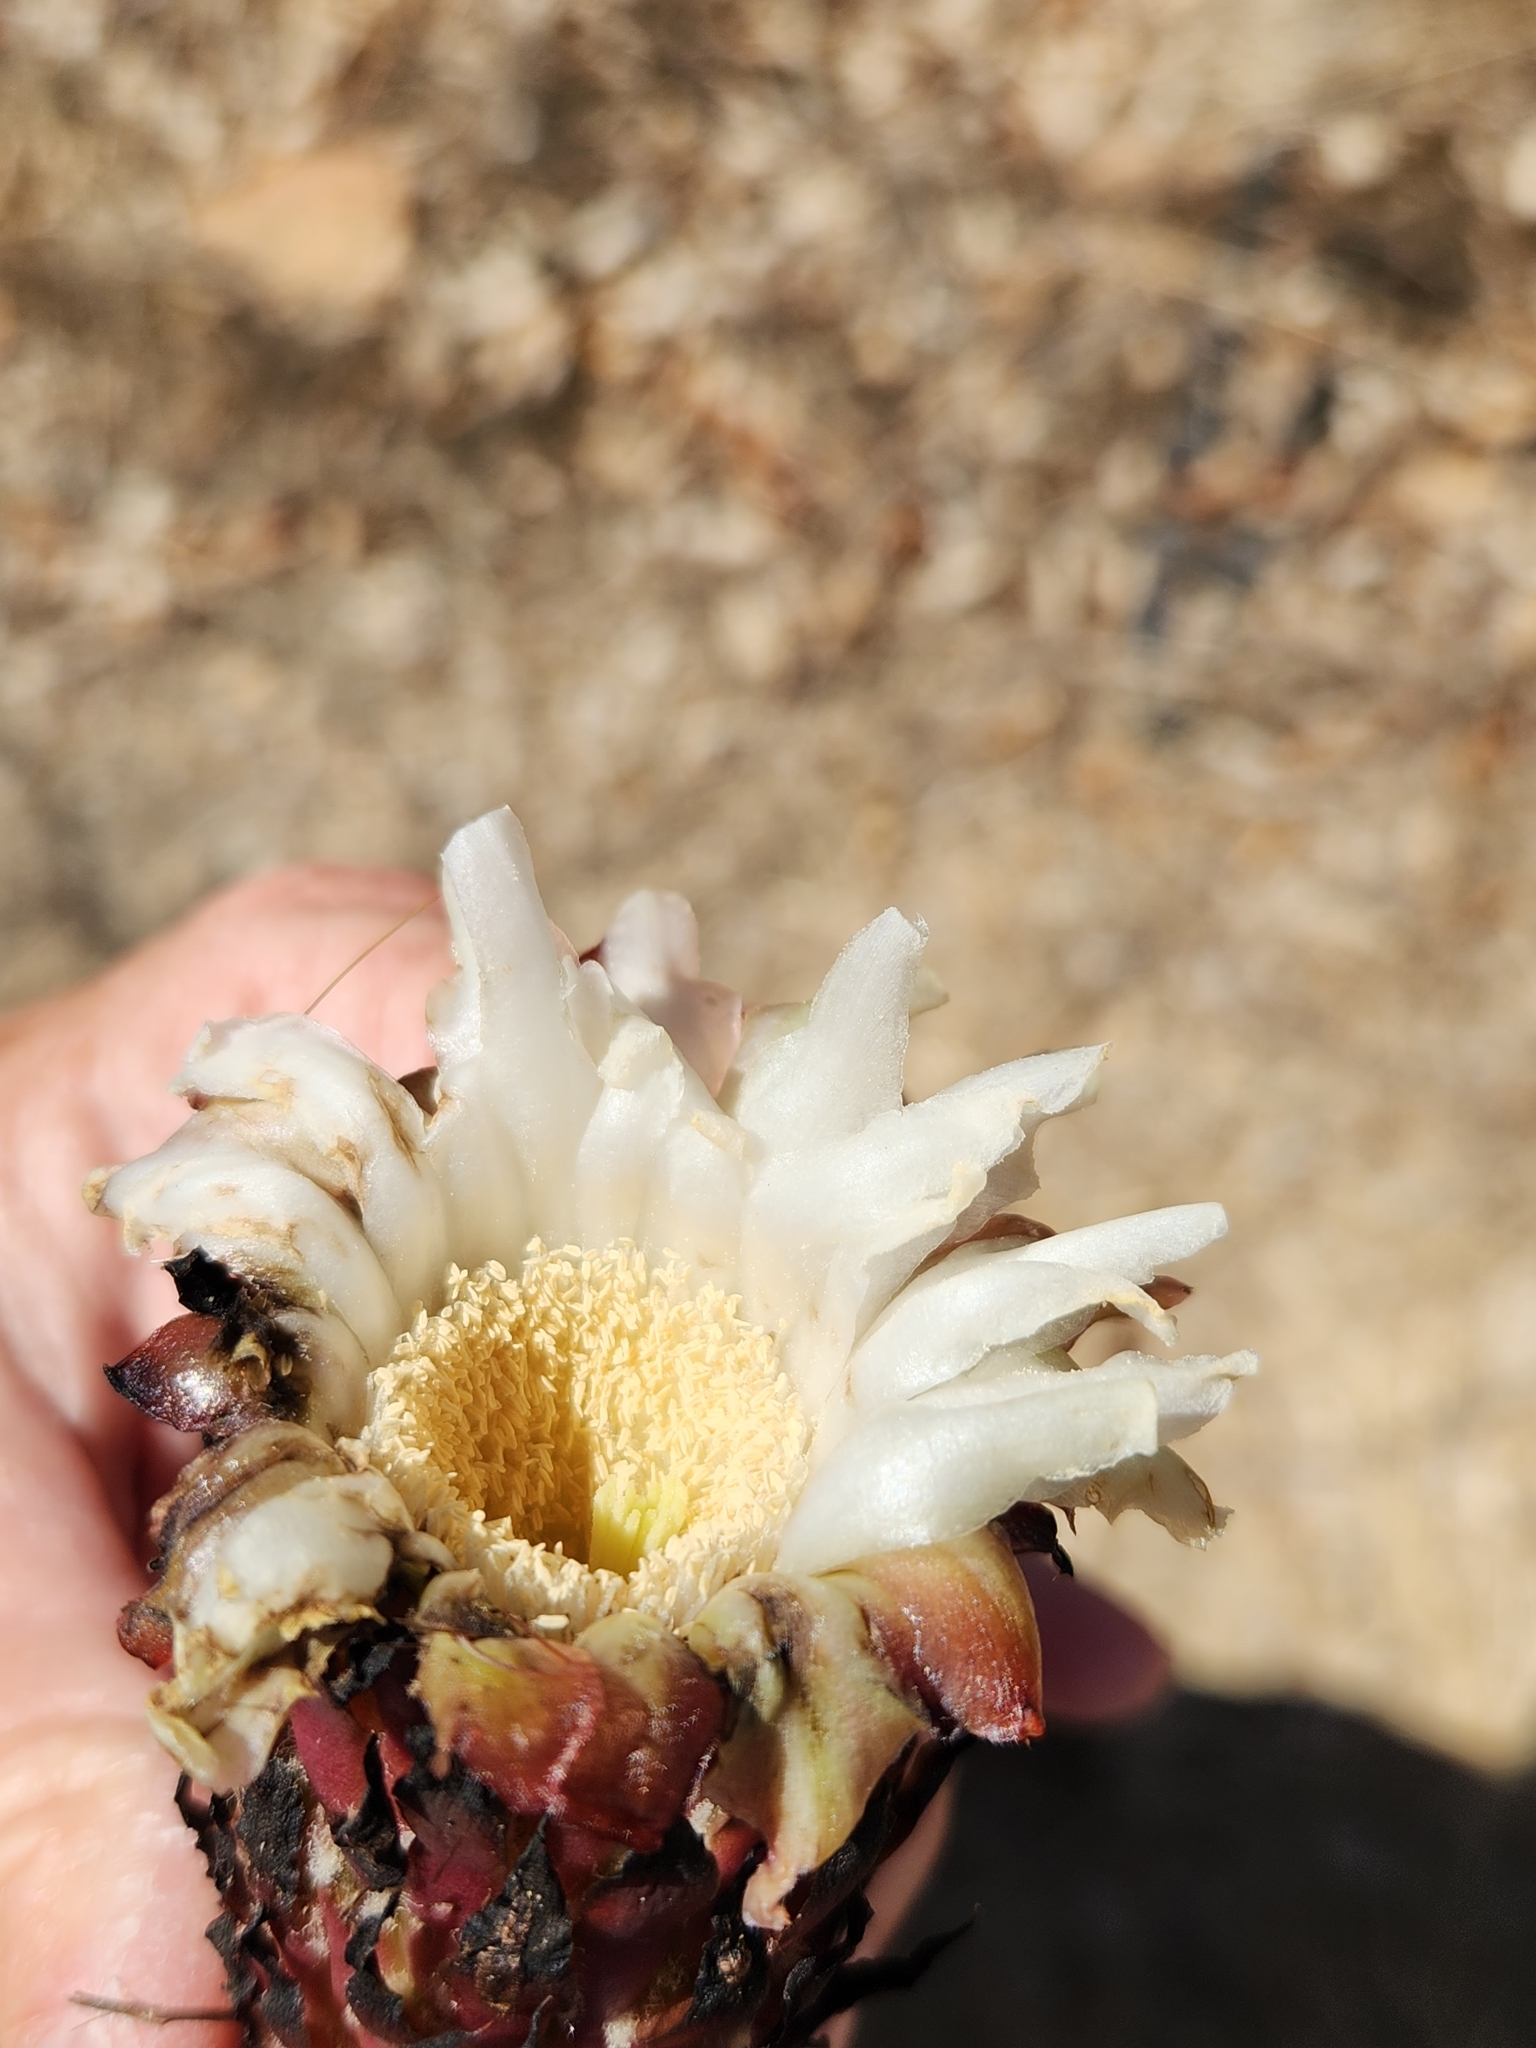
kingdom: Plantae
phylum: Tracheophyta
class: Magnoliopsida
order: Caryophyllales
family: Cactaceae
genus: Stenocereus
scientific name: Stenocereus thurberi
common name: Organ pipe cactus
